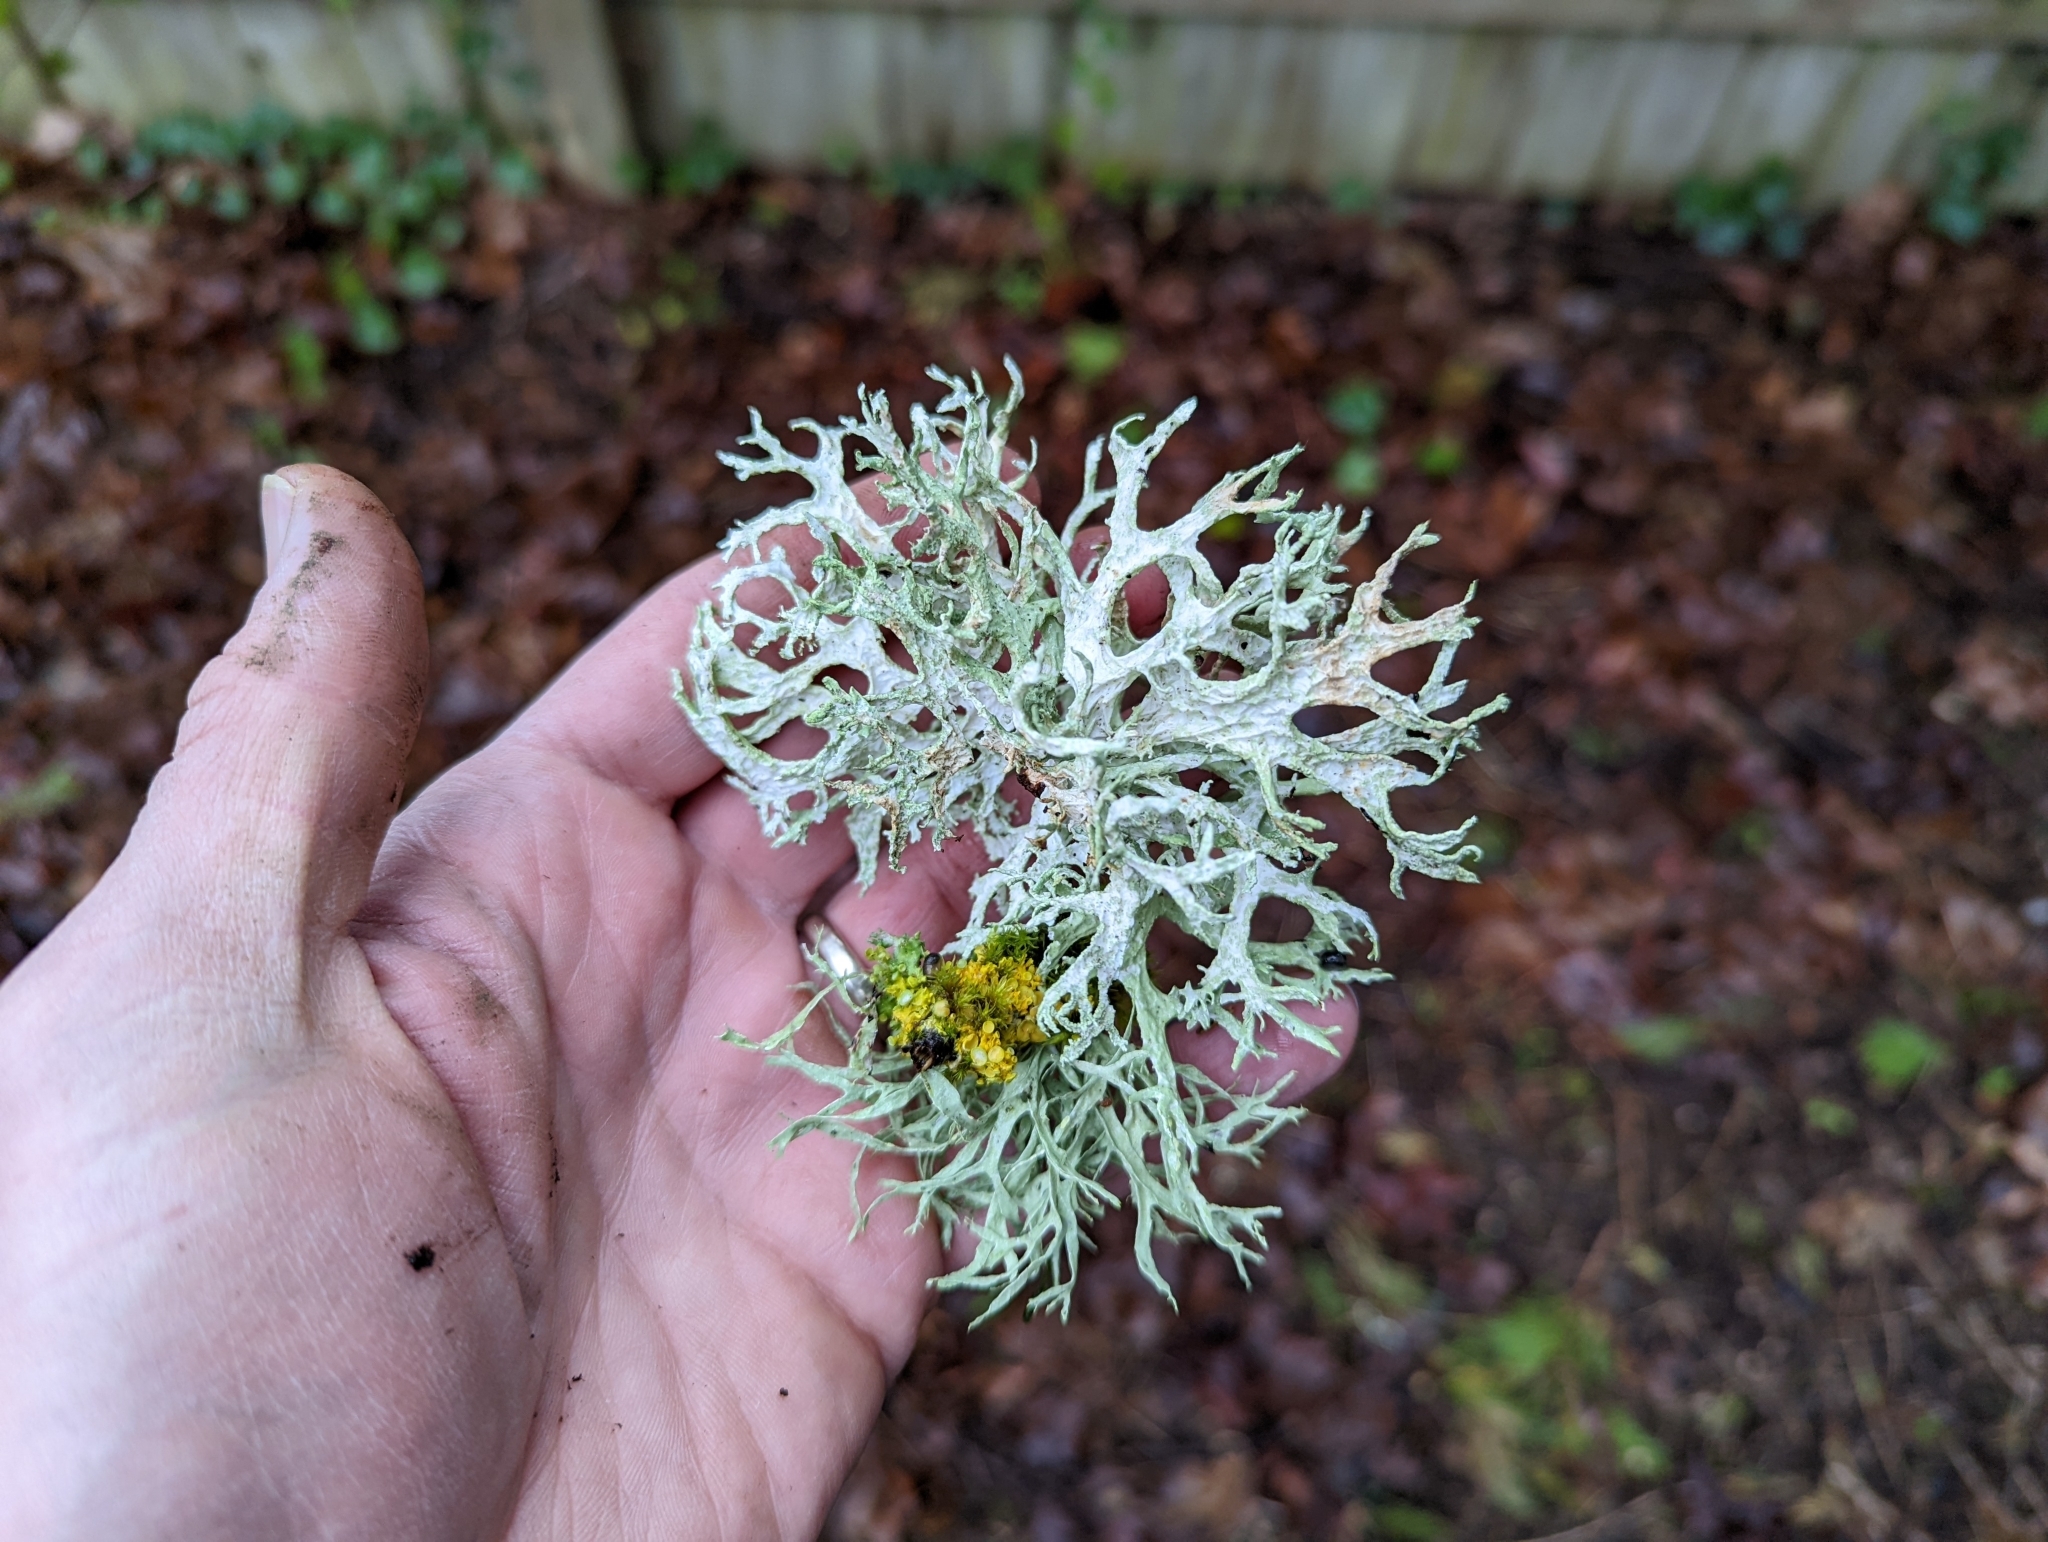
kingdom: Fungi
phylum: Ascomycota
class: Lecanoromycetes
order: Lecanorales
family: Parmeliaceae
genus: Evernia
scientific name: Evernia prunastri
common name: Oak moss
